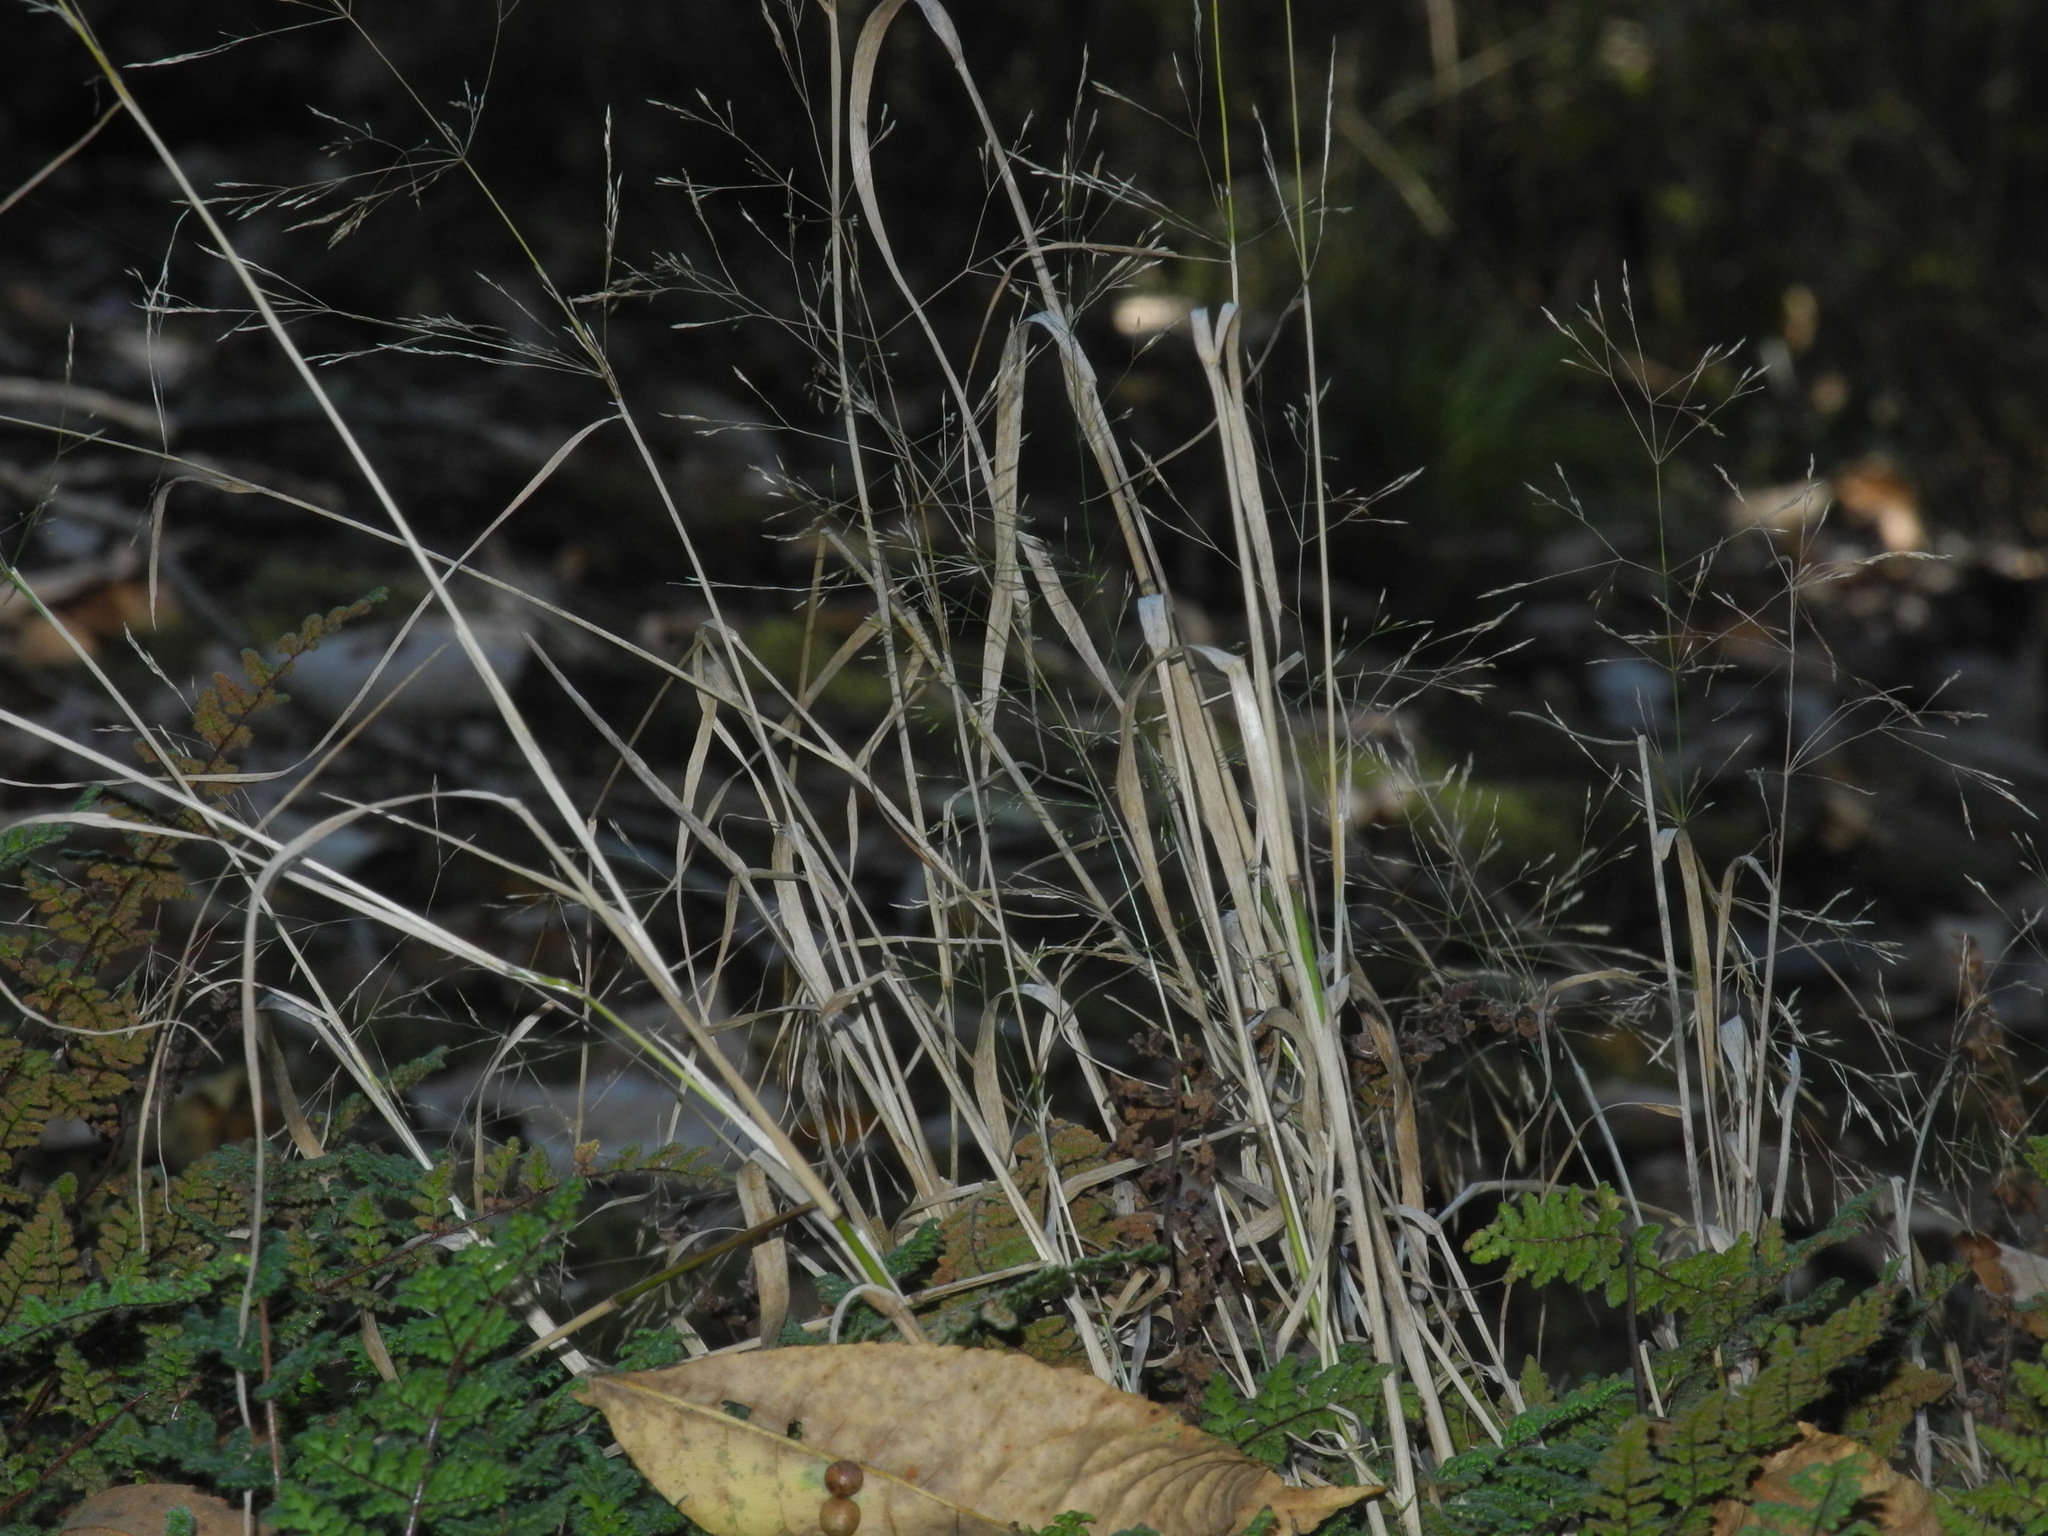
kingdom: Plantae
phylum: Tracheophyta
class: Liliopsida
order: Poales
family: Poaceae
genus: Agrostis
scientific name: Agrostis perennans
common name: Autumn bent
